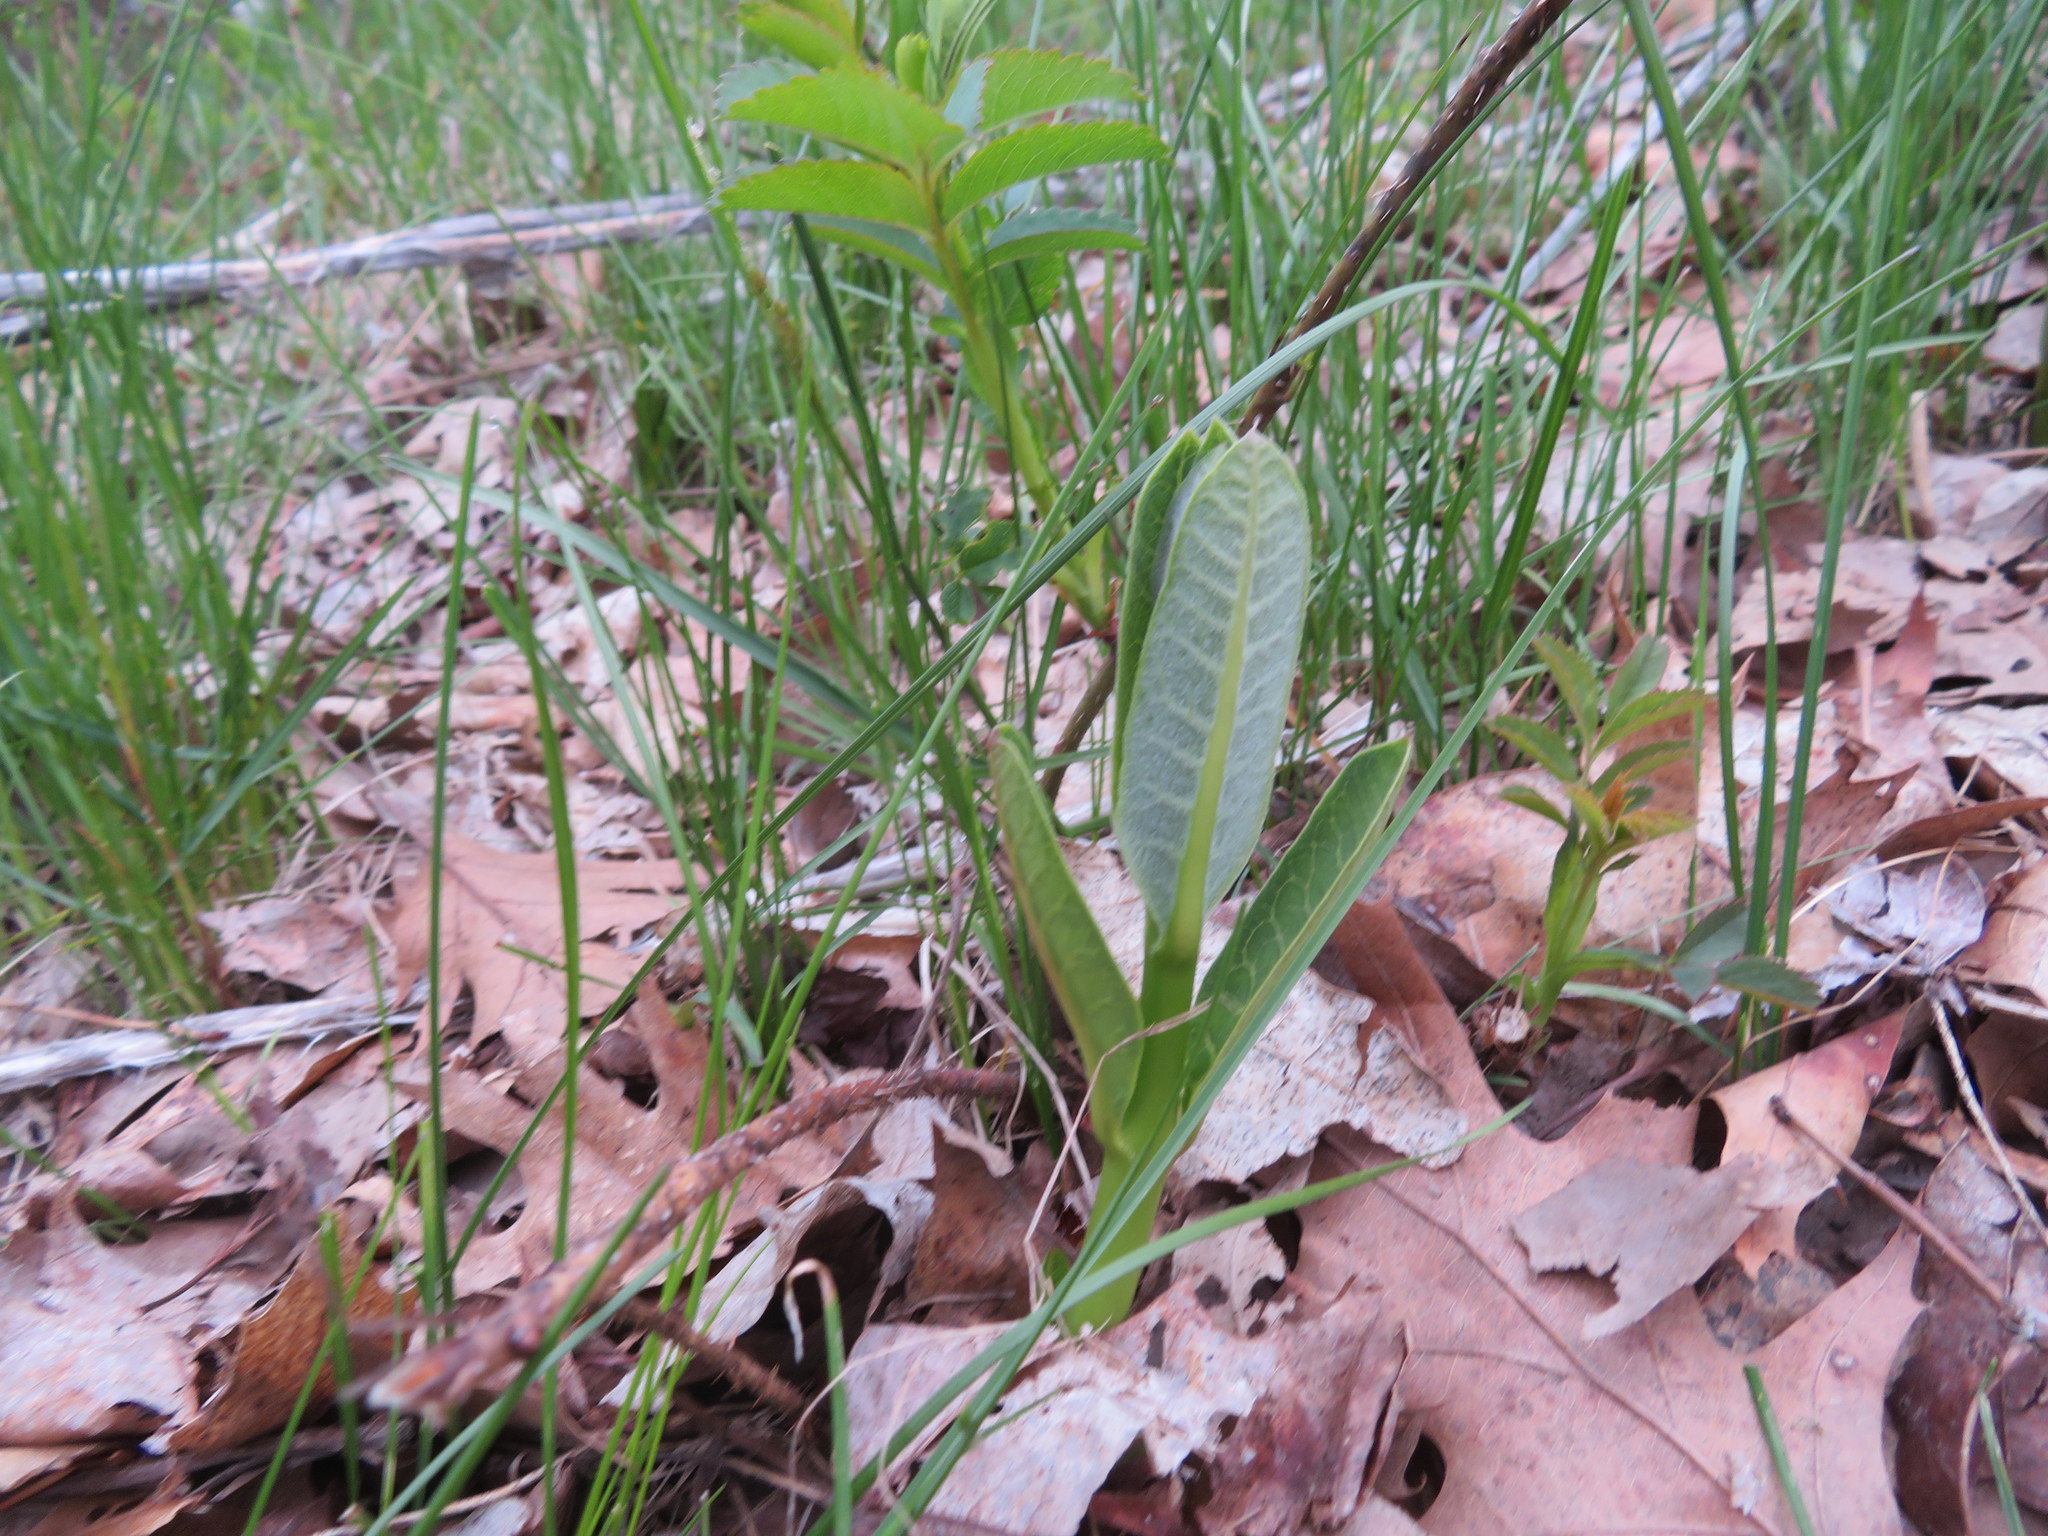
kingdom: Plantae
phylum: Tracheophyta
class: Magnoliopsida
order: Gentianales
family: Apocynaceae
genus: Asclepias
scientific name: Asclepias syriaca
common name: Common milkweed
